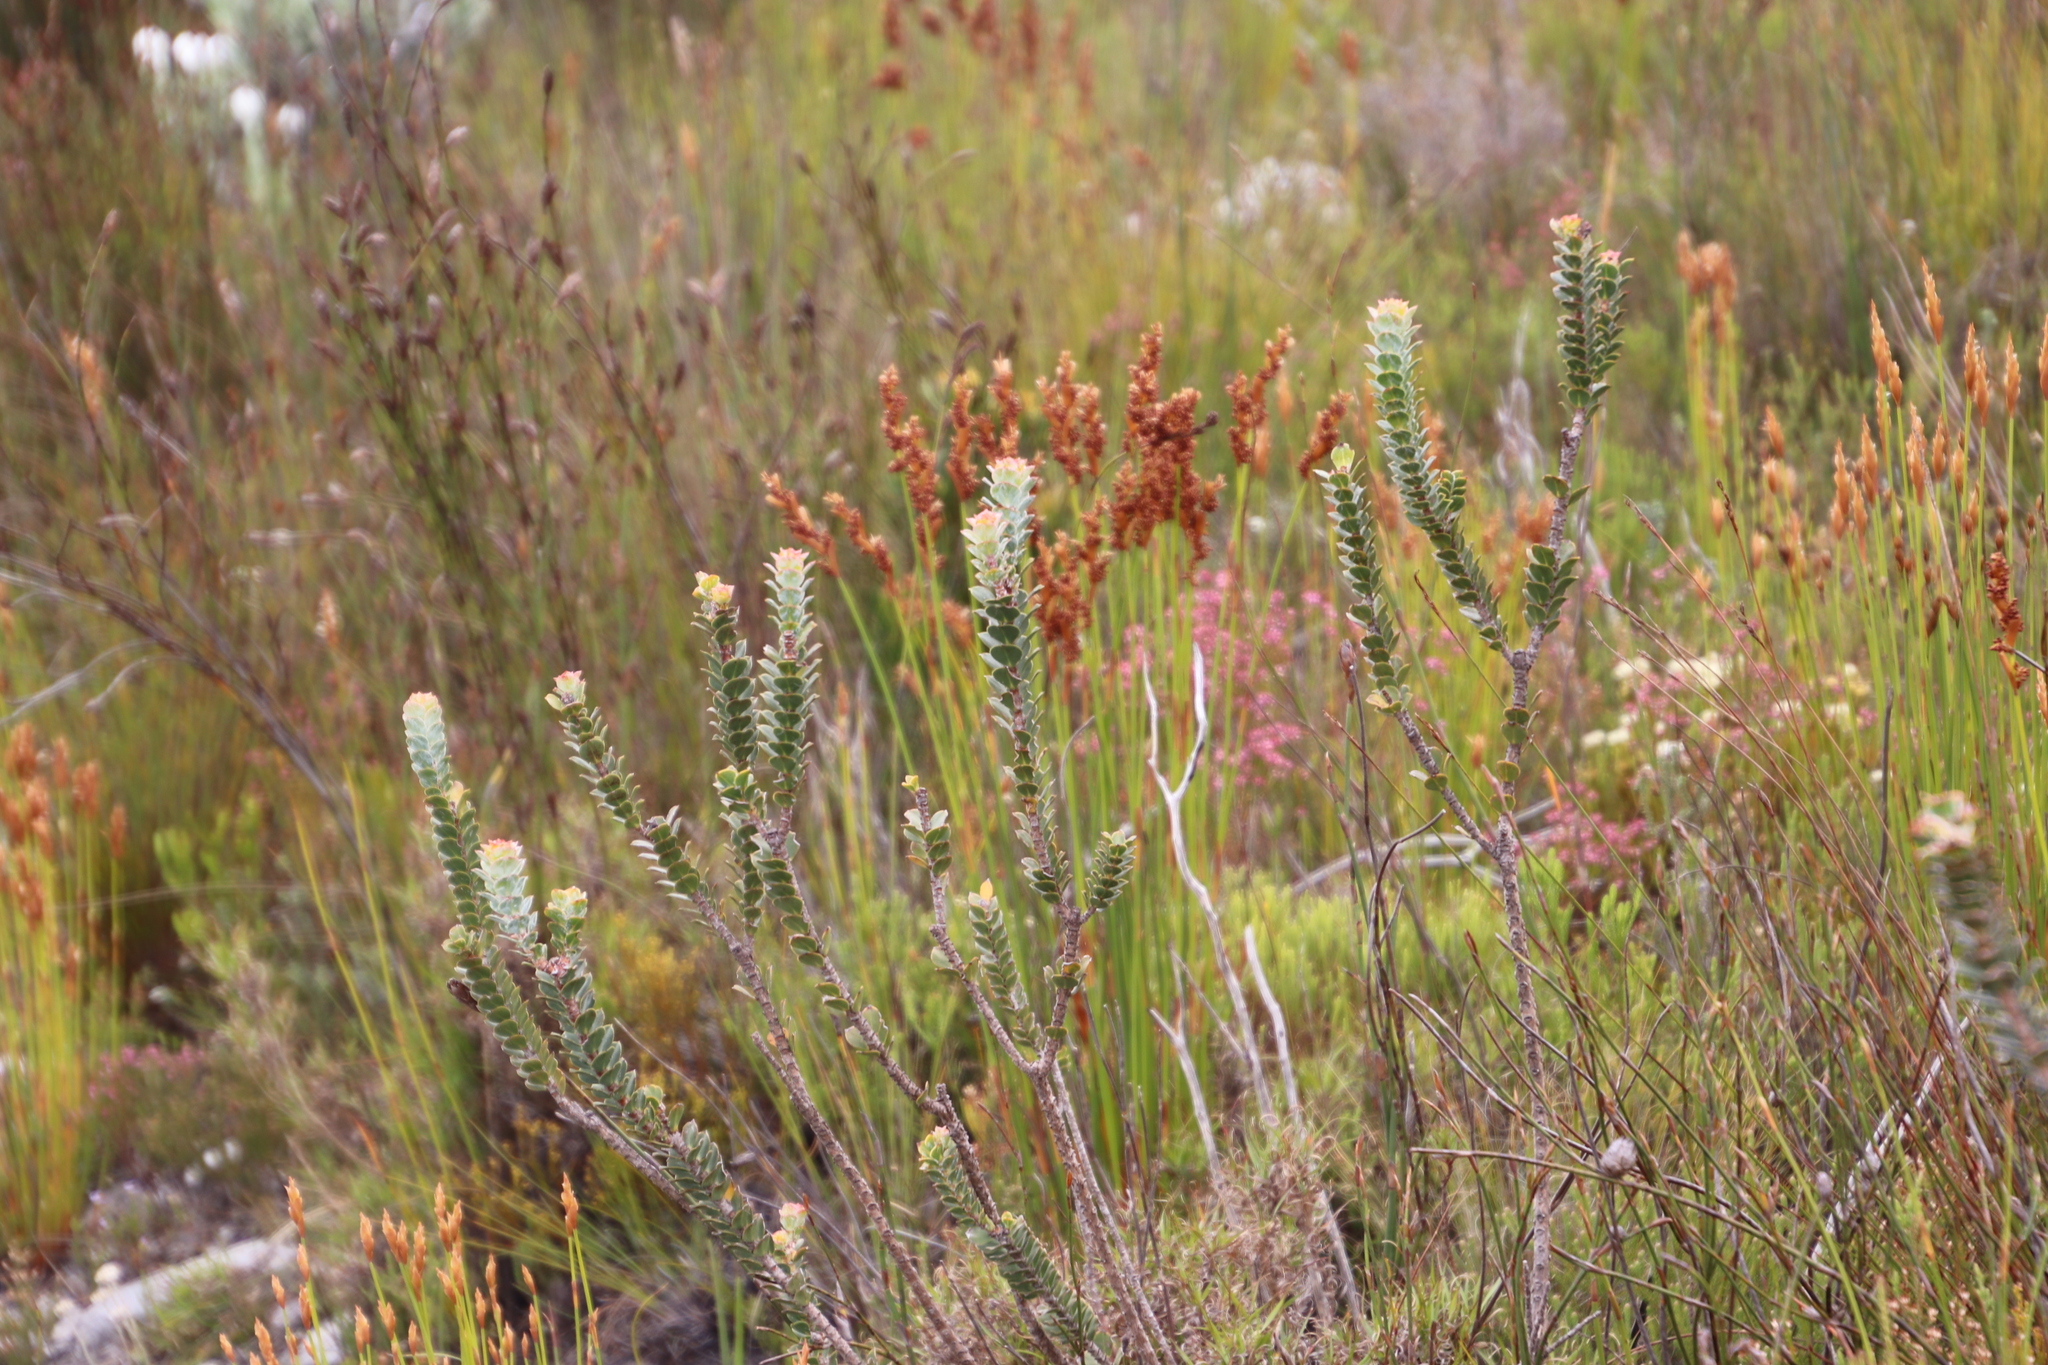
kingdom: Plantae
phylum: Tracheophyta
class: Magnoliopsida
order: Myrtales
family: Penaeaceae
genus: Saltera
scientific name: Saltera sarcocolla
